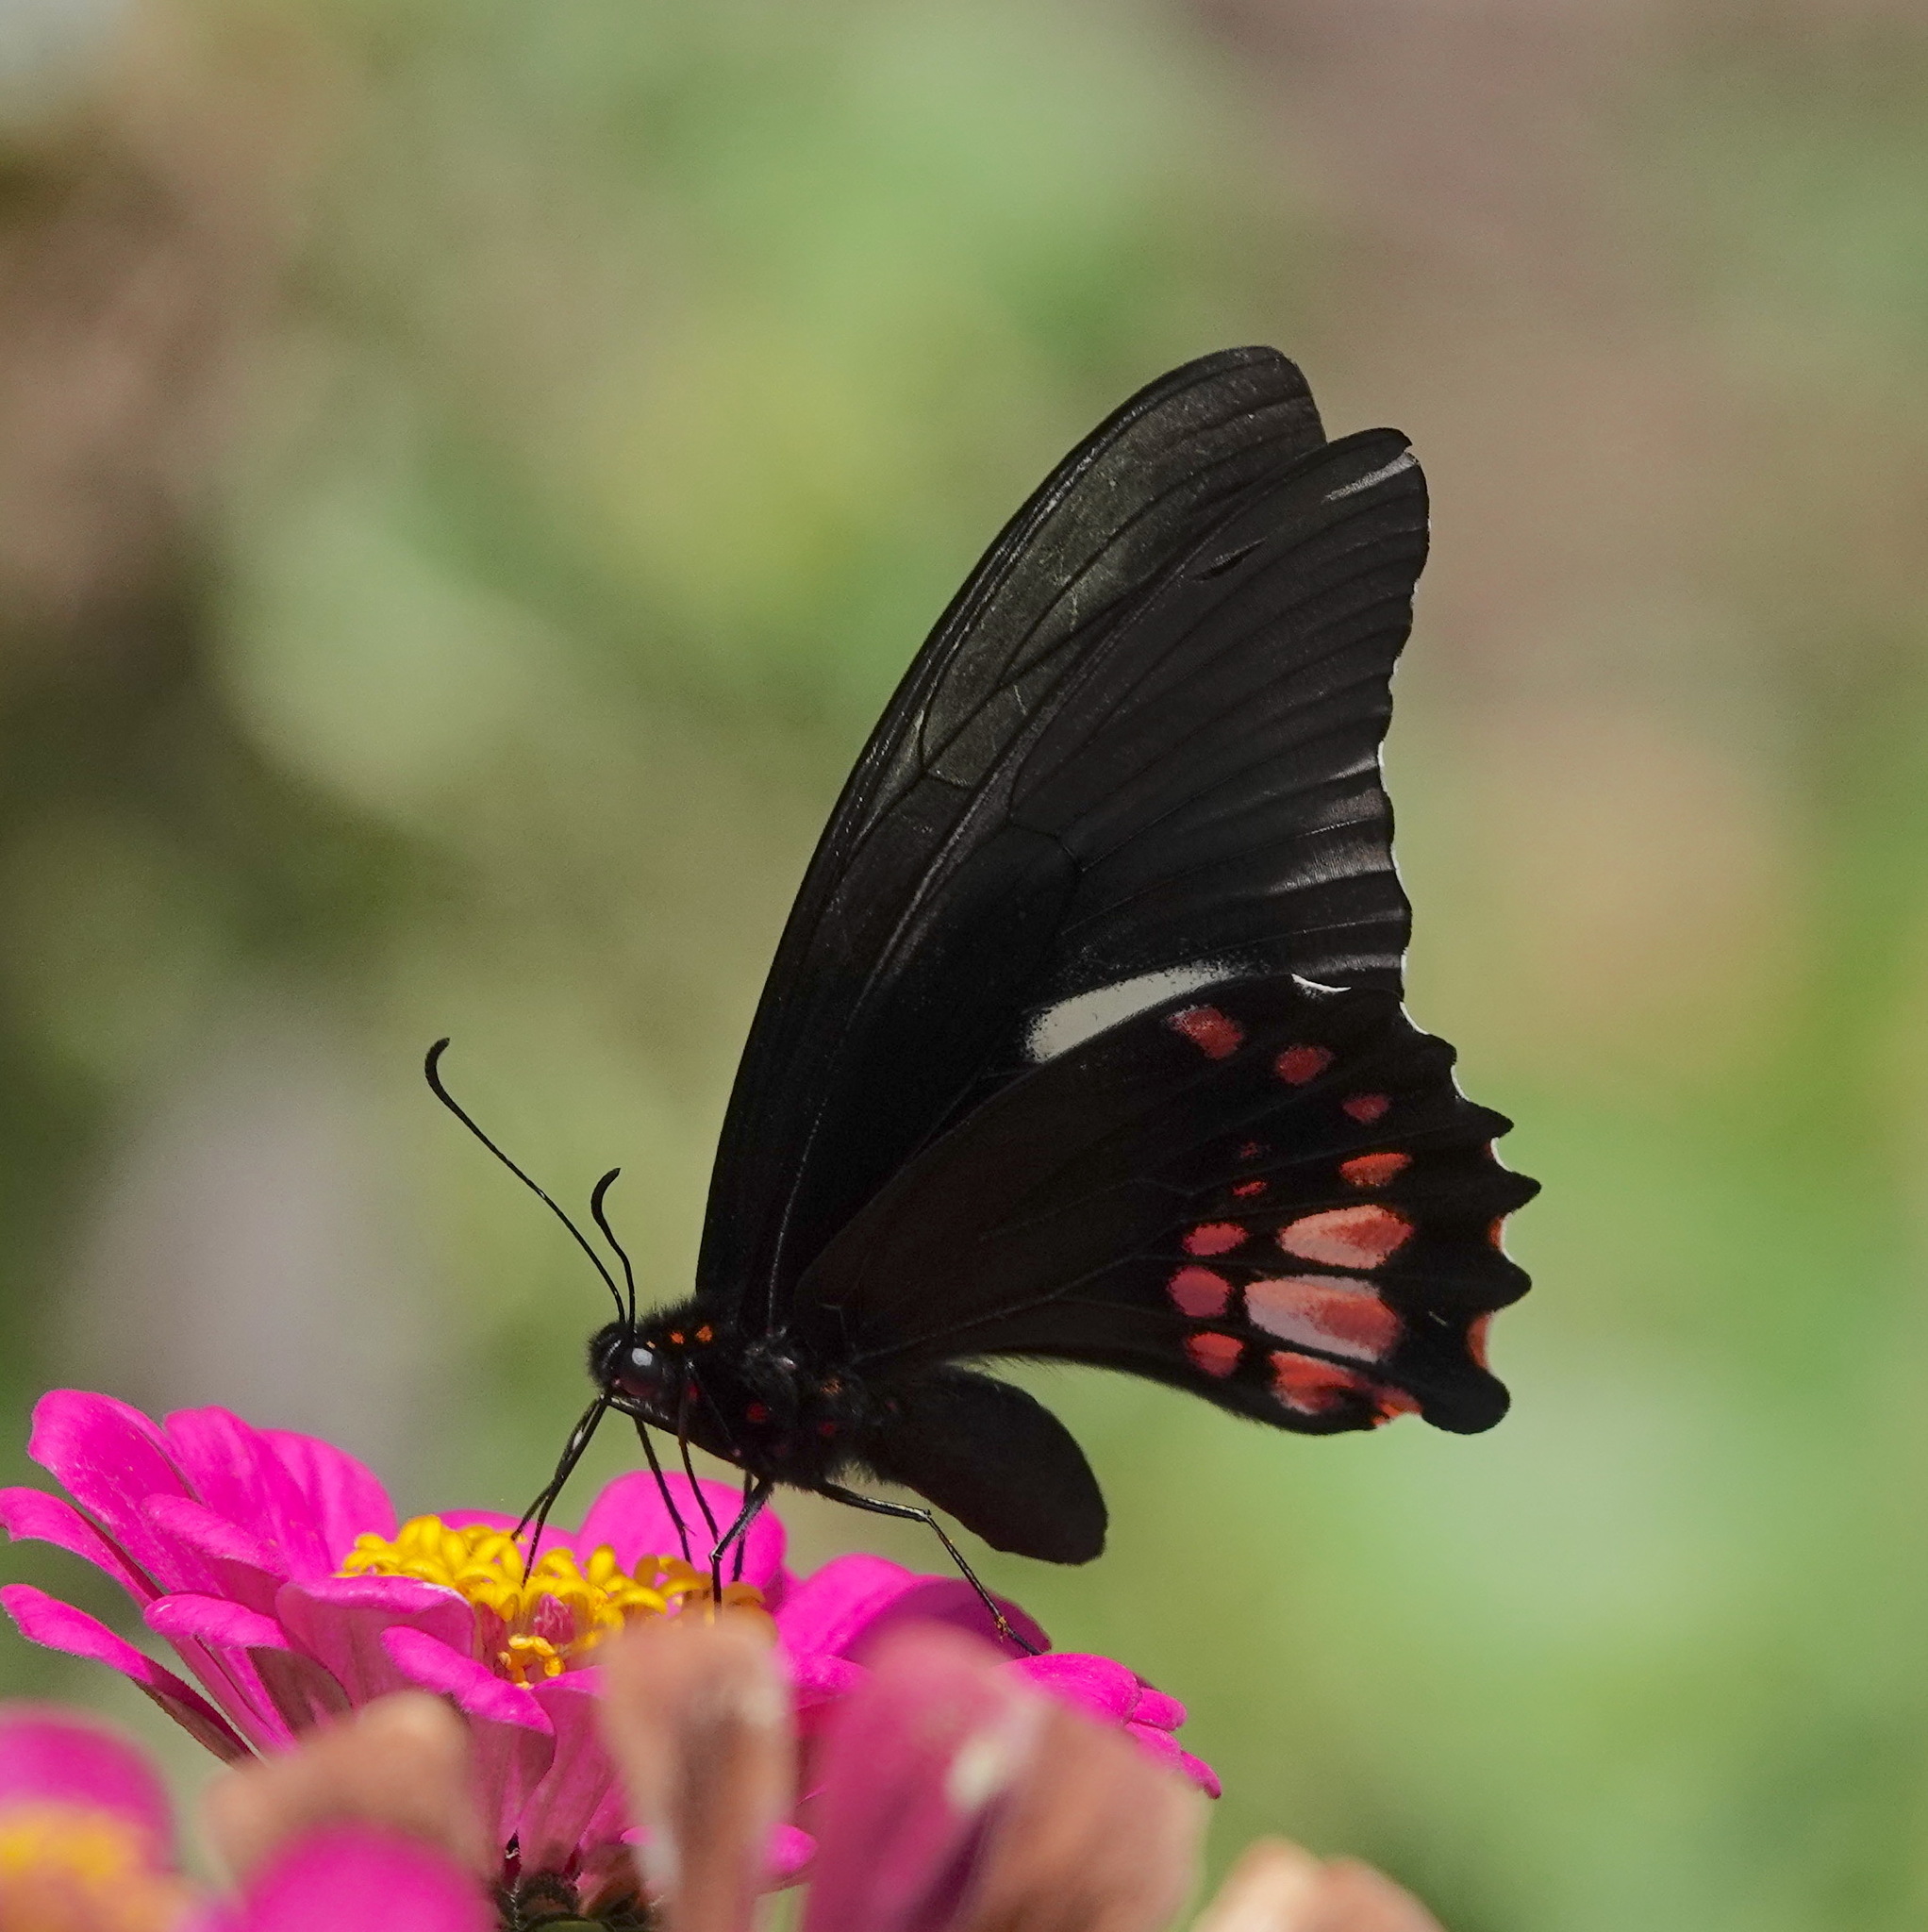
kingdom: Animalia
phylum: Arthropoda
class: Insecta
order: Lepidoptera
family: Papilionidae
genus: Papilio
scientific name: Papilio anchisiades
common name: Idaes swallowtail
